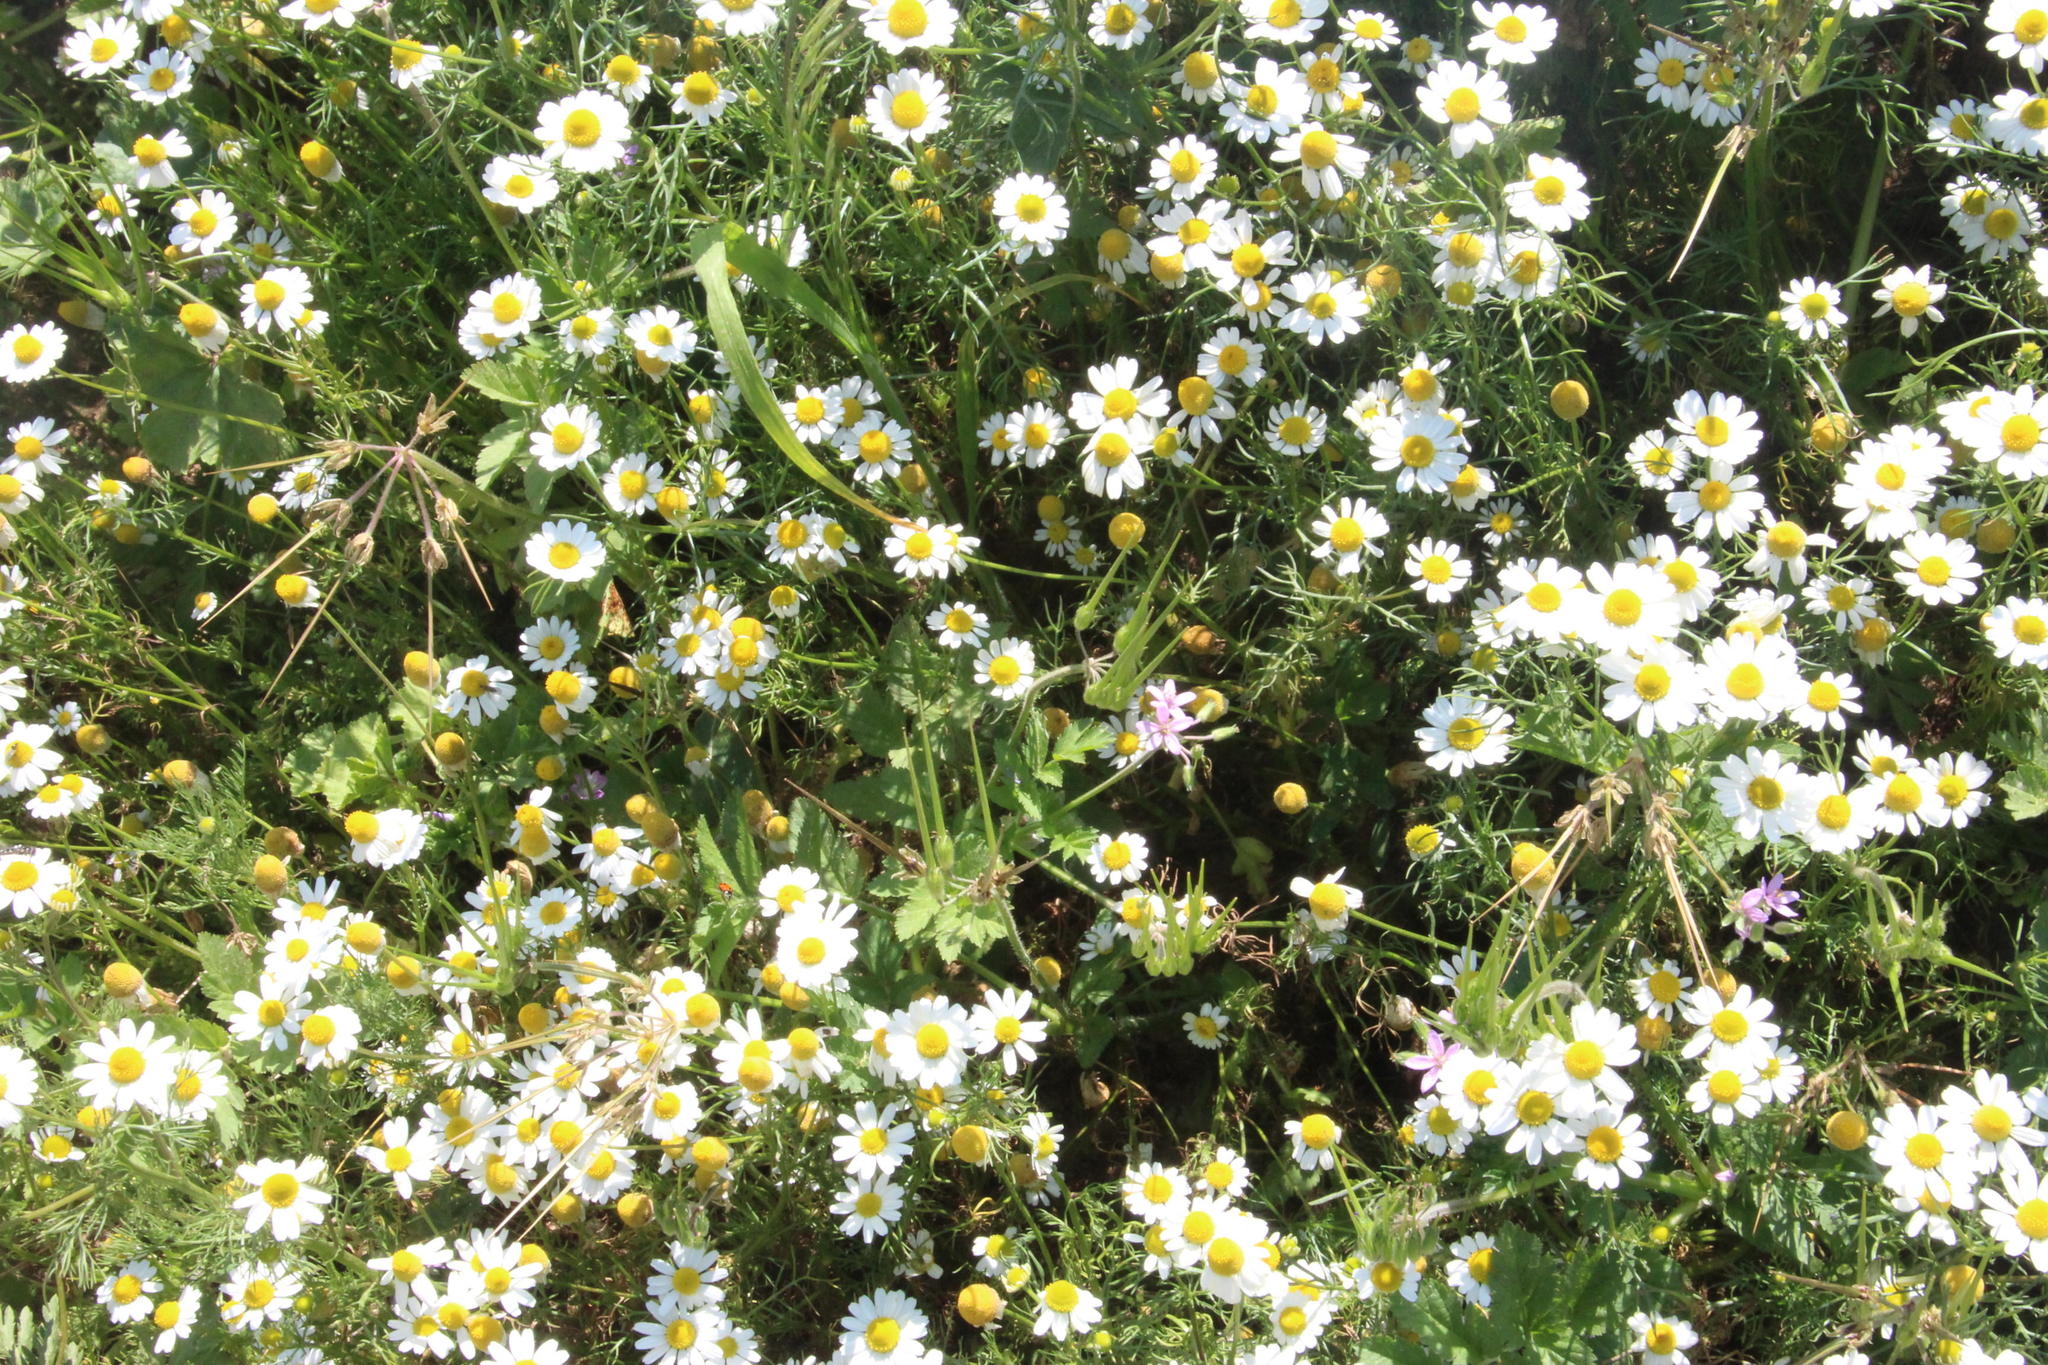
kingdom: Plantae
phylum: Tracheophyta
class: Magnoliopsida
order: Geraniales
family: Geraniaceae
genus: Erodium
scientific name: Erodium moschatum
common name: Musk stork's-bill
